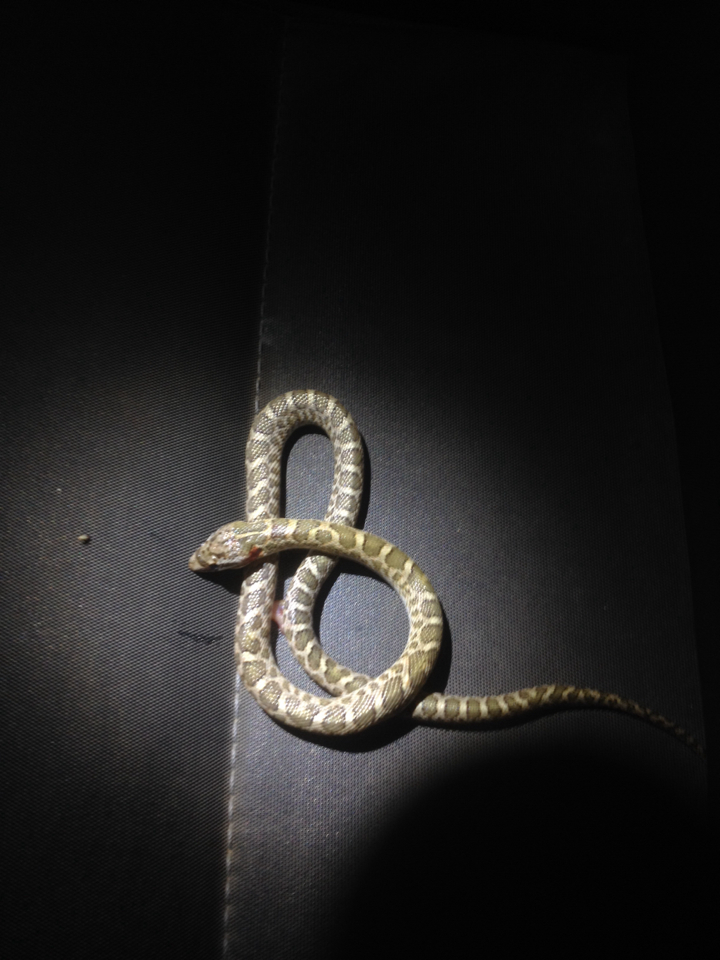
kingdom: Animalia
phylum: Chordata
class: Squamata
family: Colubridae
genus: Arizona
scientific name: Arizona elegans
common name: Glossy snake
